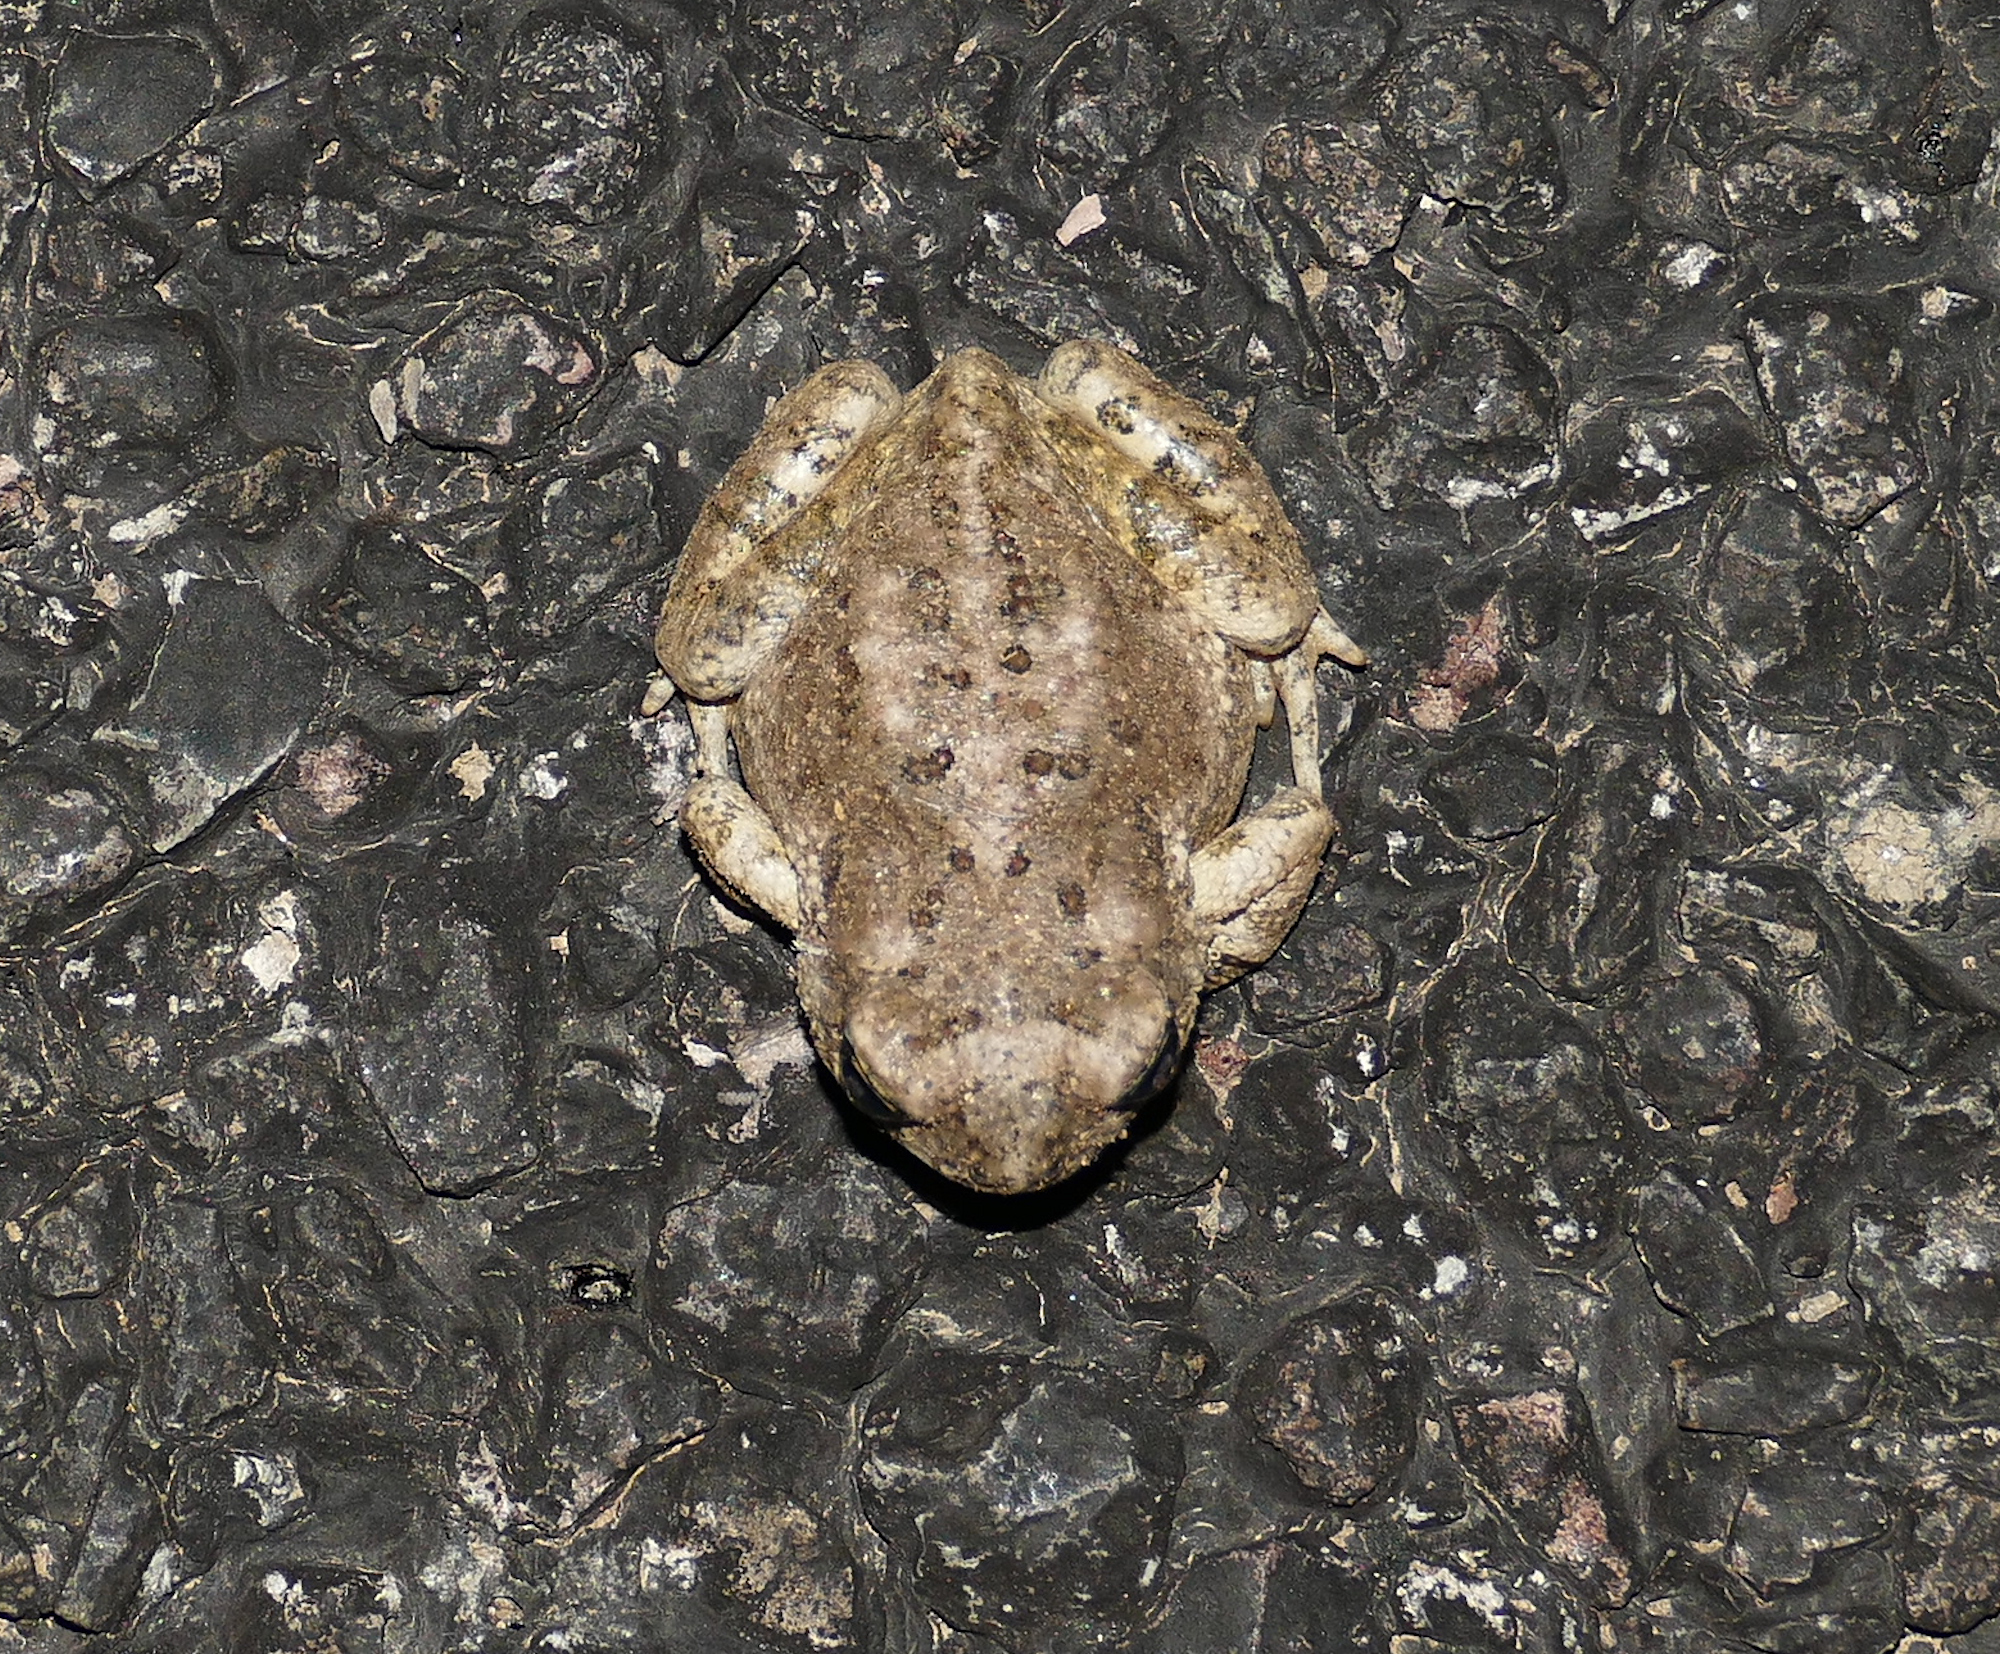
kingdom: Animalia
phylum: Chordata
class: Amphibia
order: Anura
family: Bufonidae
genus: Anaxyrus
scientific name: Anaxyrus microscaphus
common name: Arizona toad
